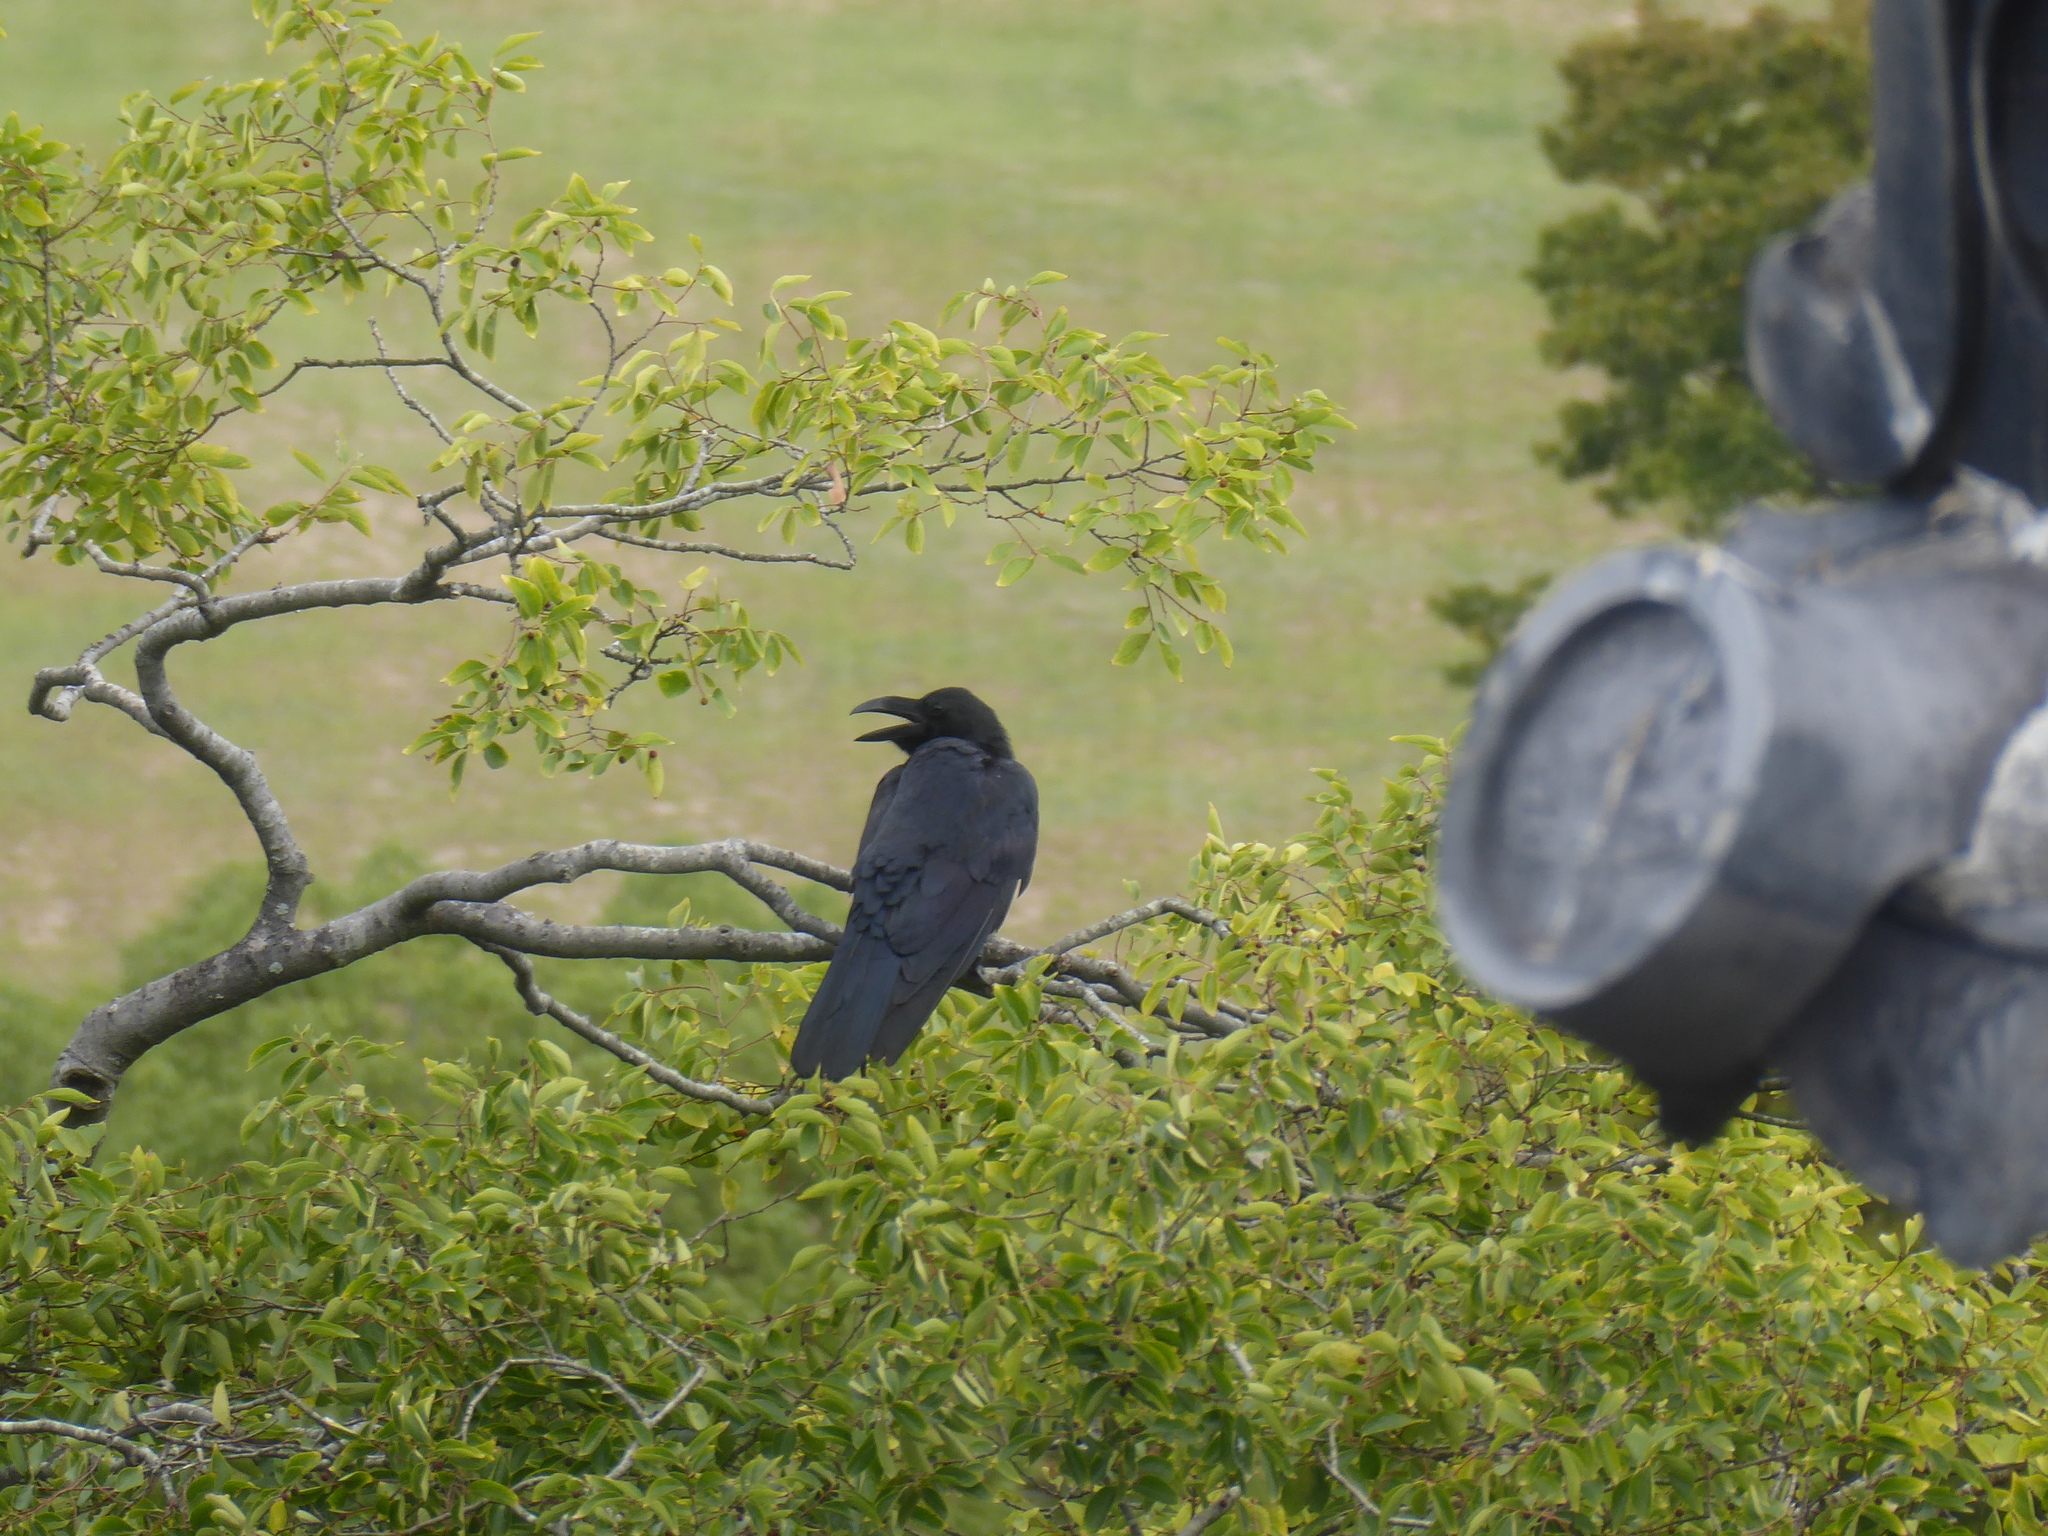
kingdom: Animalia
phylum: Chordata
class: Aves
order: Passeriformes
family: Corvidae
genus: Corvus
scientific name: Corvus macrorhynchos
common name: Large-billed crow
